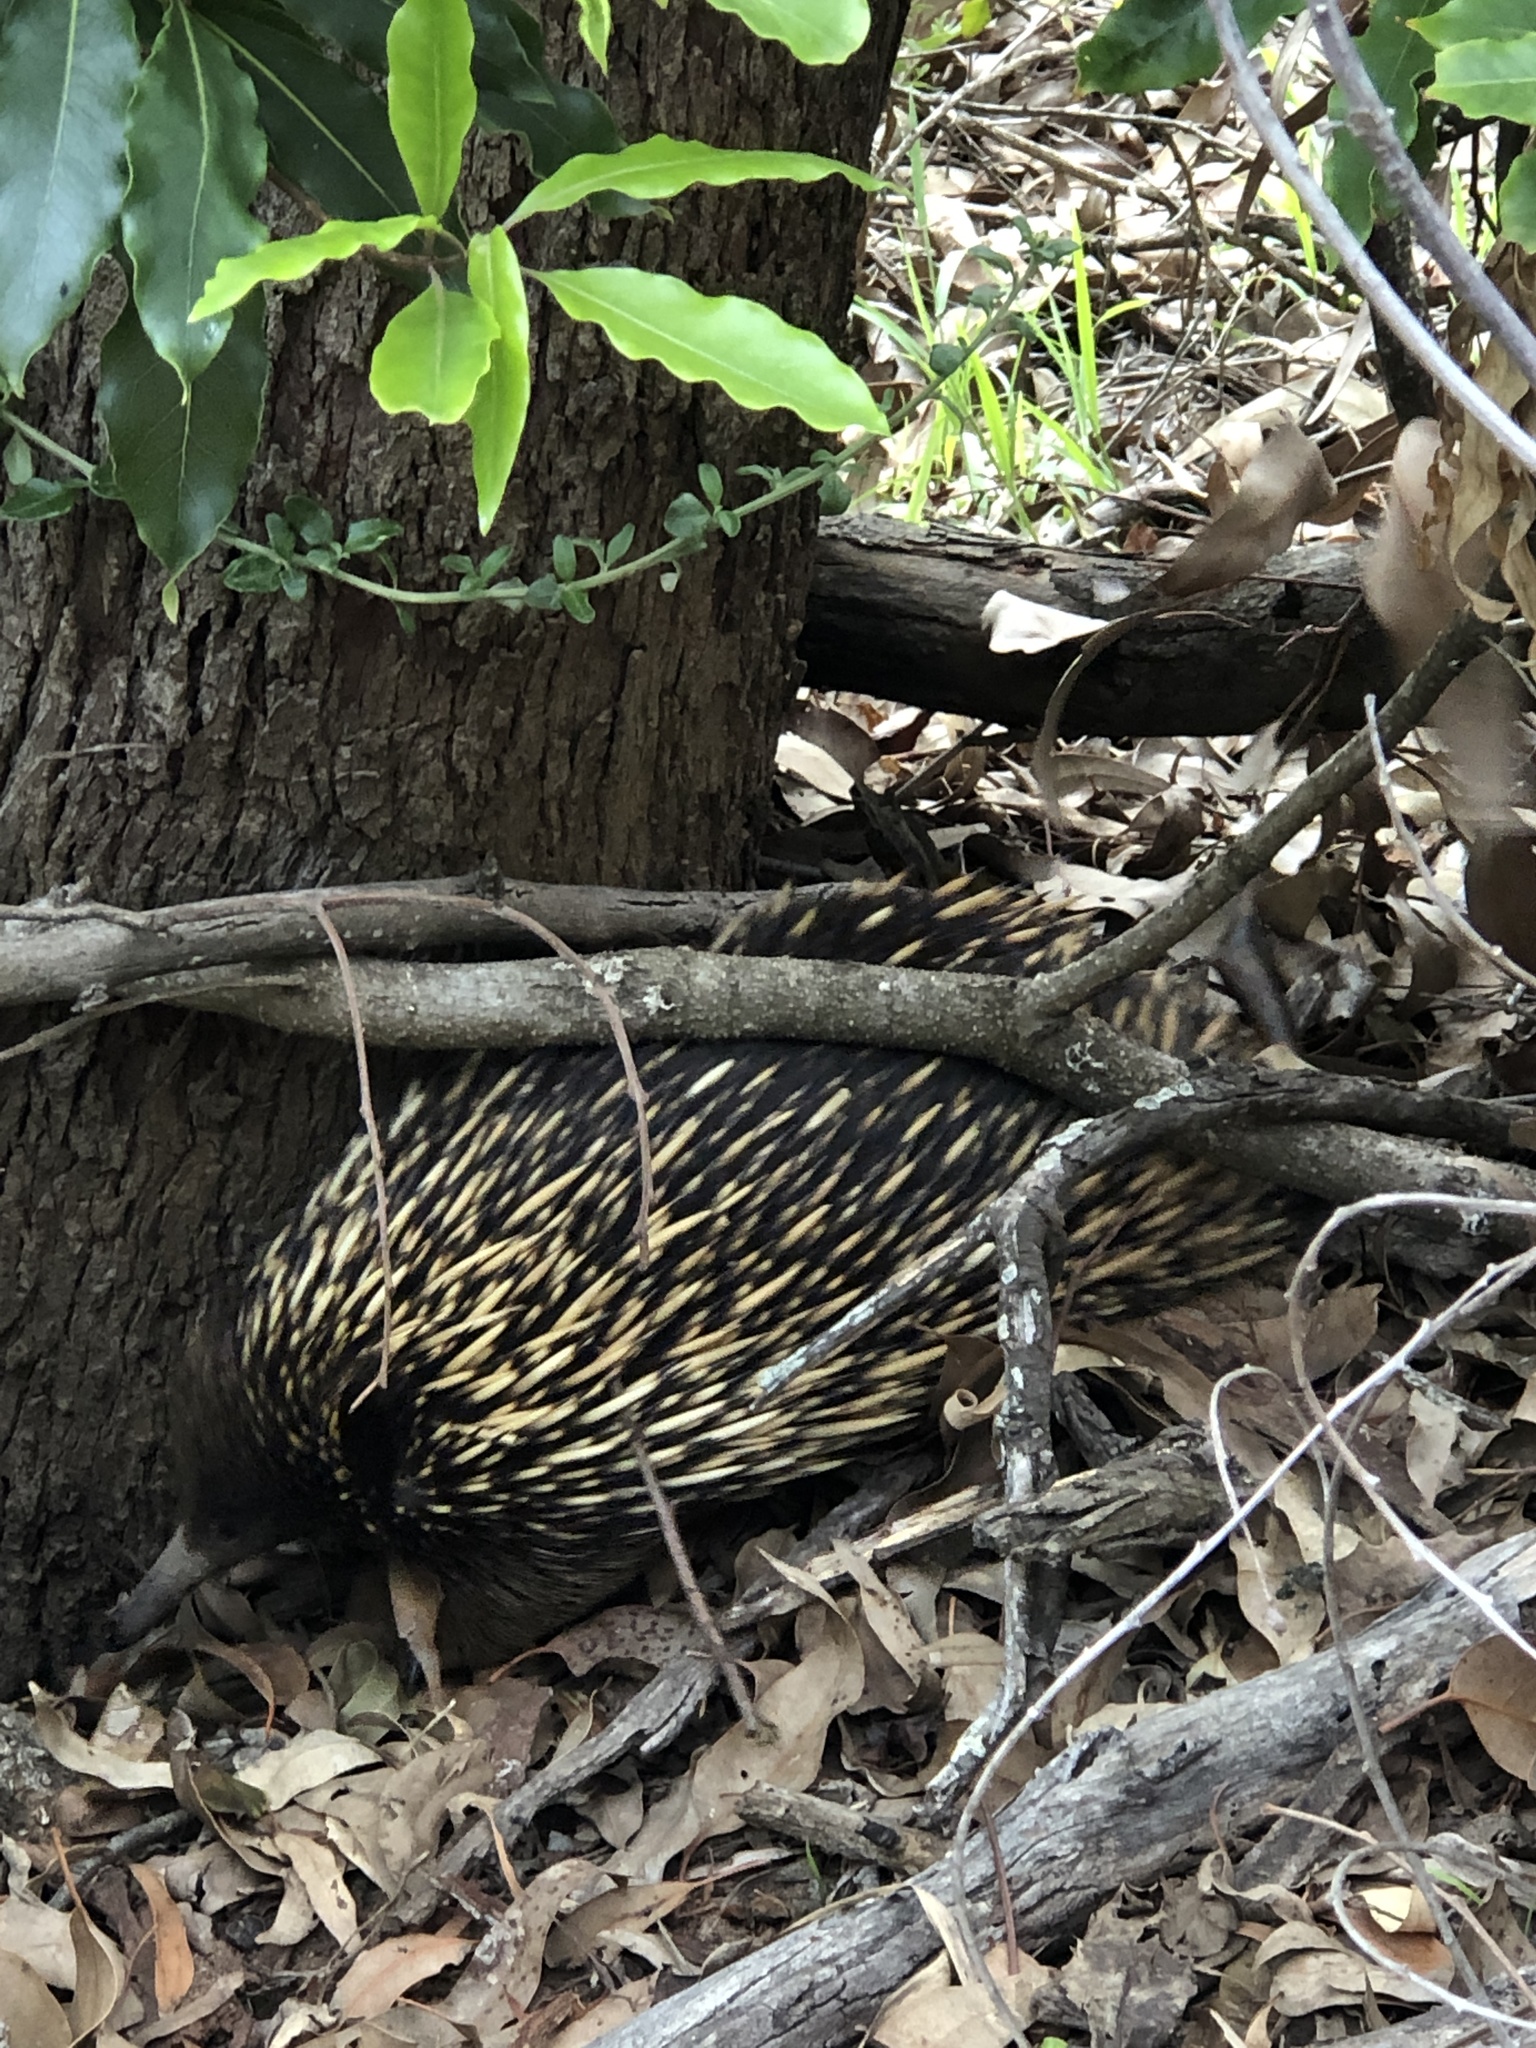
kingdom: Animalia
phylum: Chordata
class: Mammalia
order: Monotremata
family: Tachyglossidae
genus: Tachyglossus
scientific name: Tachyglossus aculeatus
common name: Short-beaked echidna
